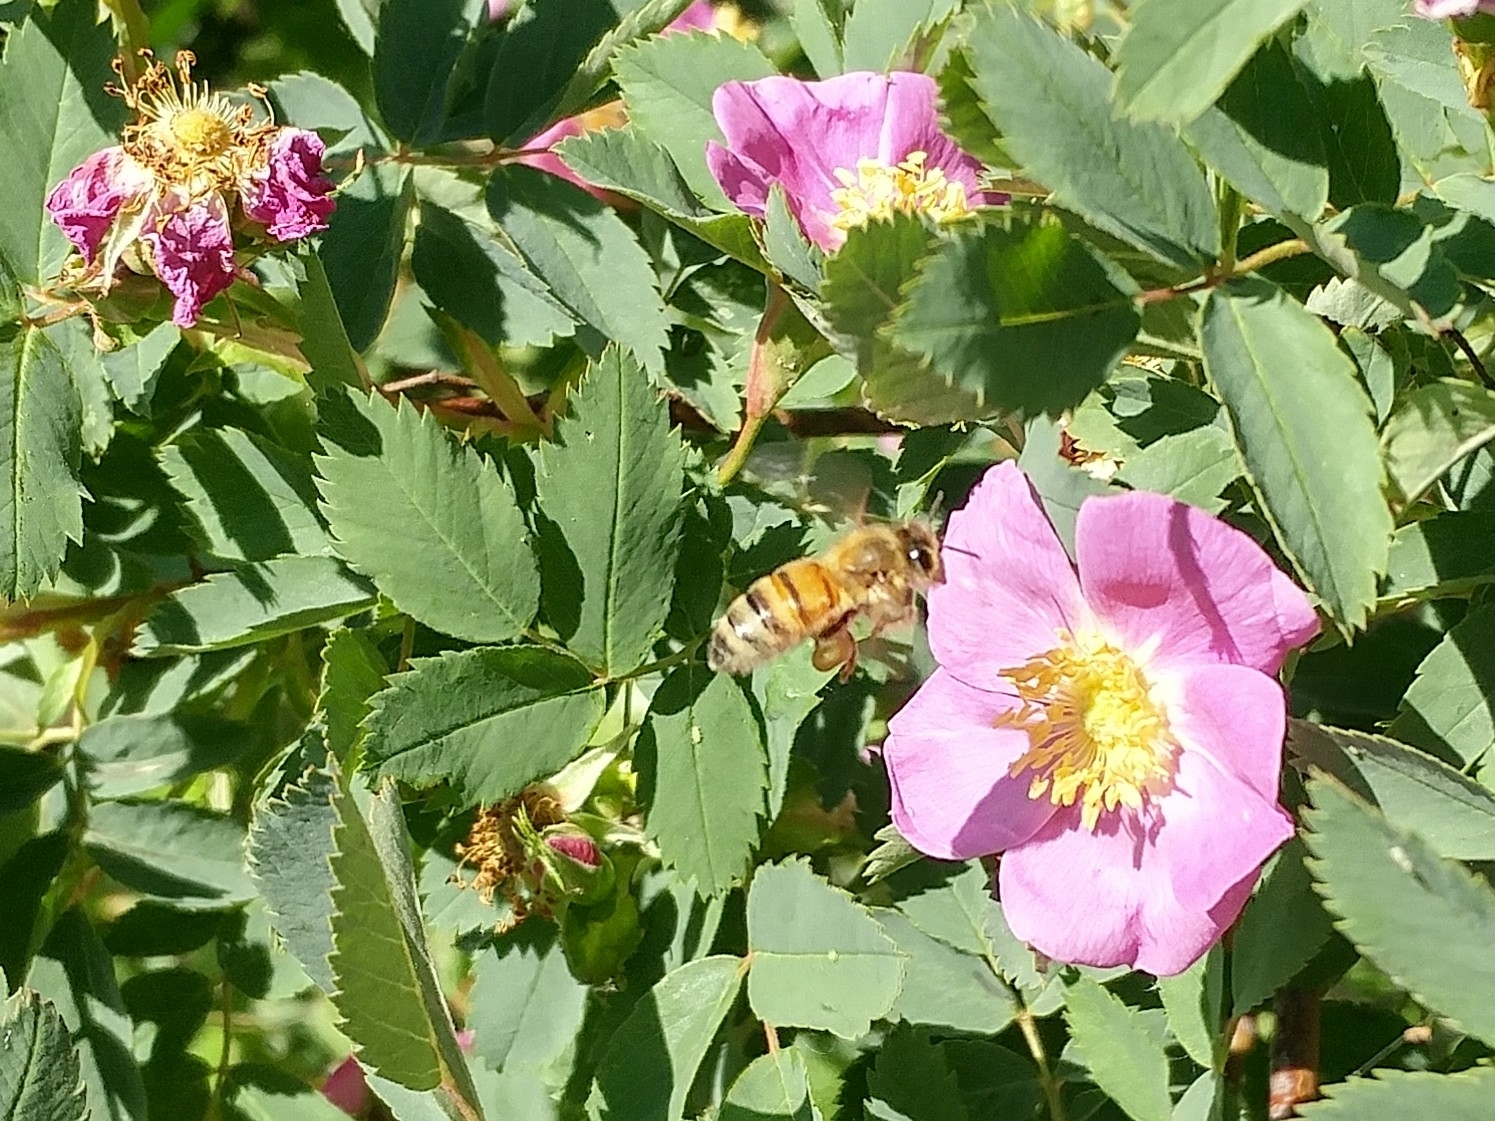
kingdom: Animalia
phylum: Arthropoda
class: Insecta
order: Hymenoptera
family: Apidae
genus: Apis
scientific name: Apis mellifera
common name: Honey bee
